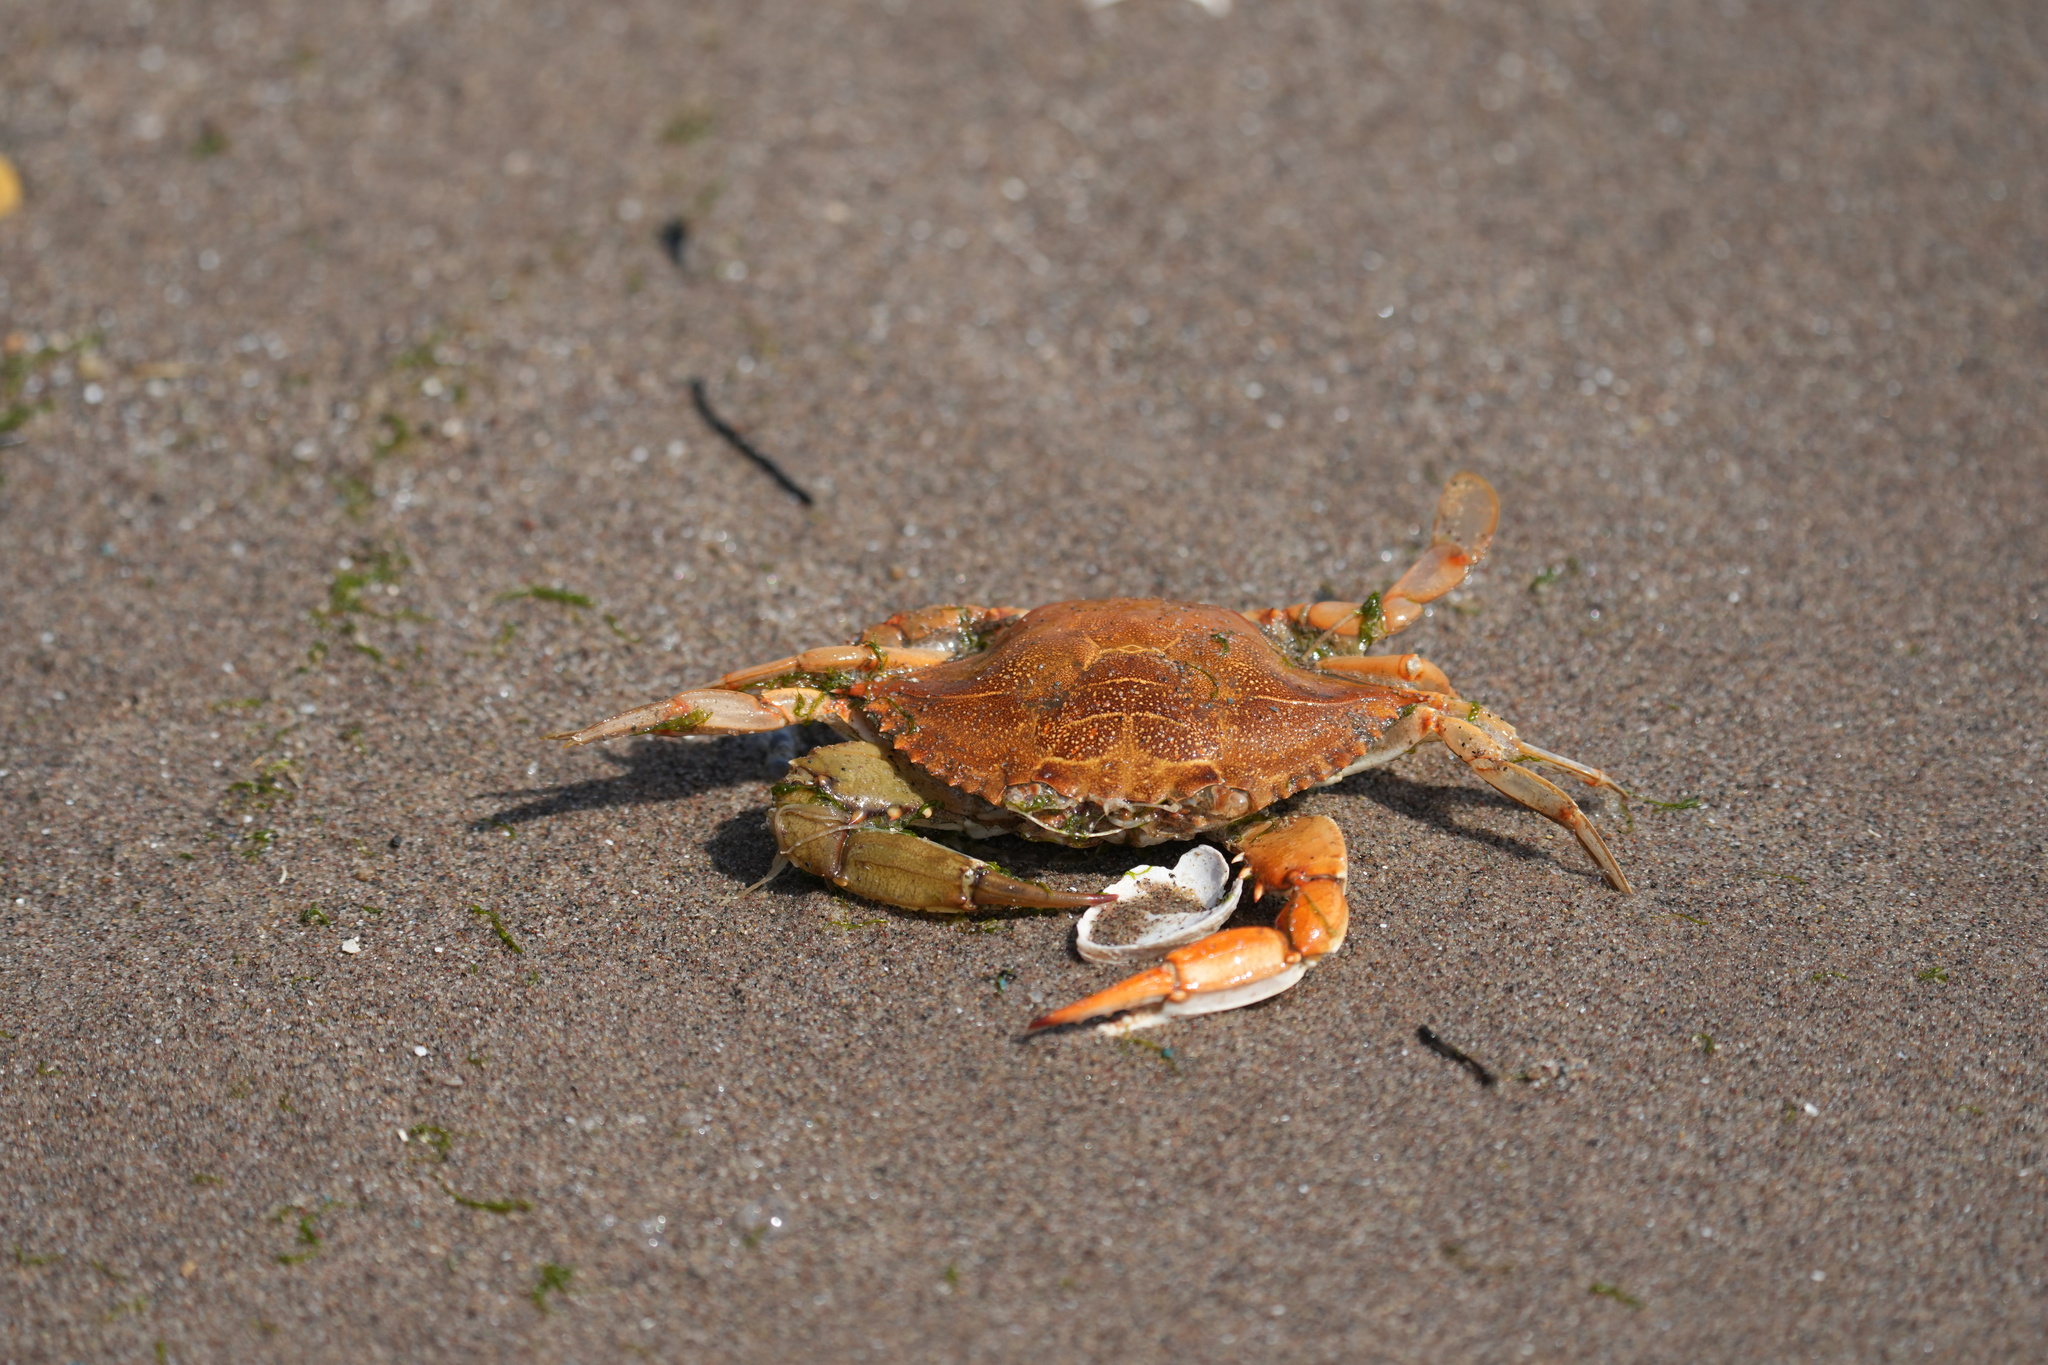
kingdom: Animalia
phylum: Arthropoda
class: Malacostraca
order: Decapoda
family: Portunidae
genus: Callinectes
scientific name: Callinectes sapidus
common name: Blue crab
